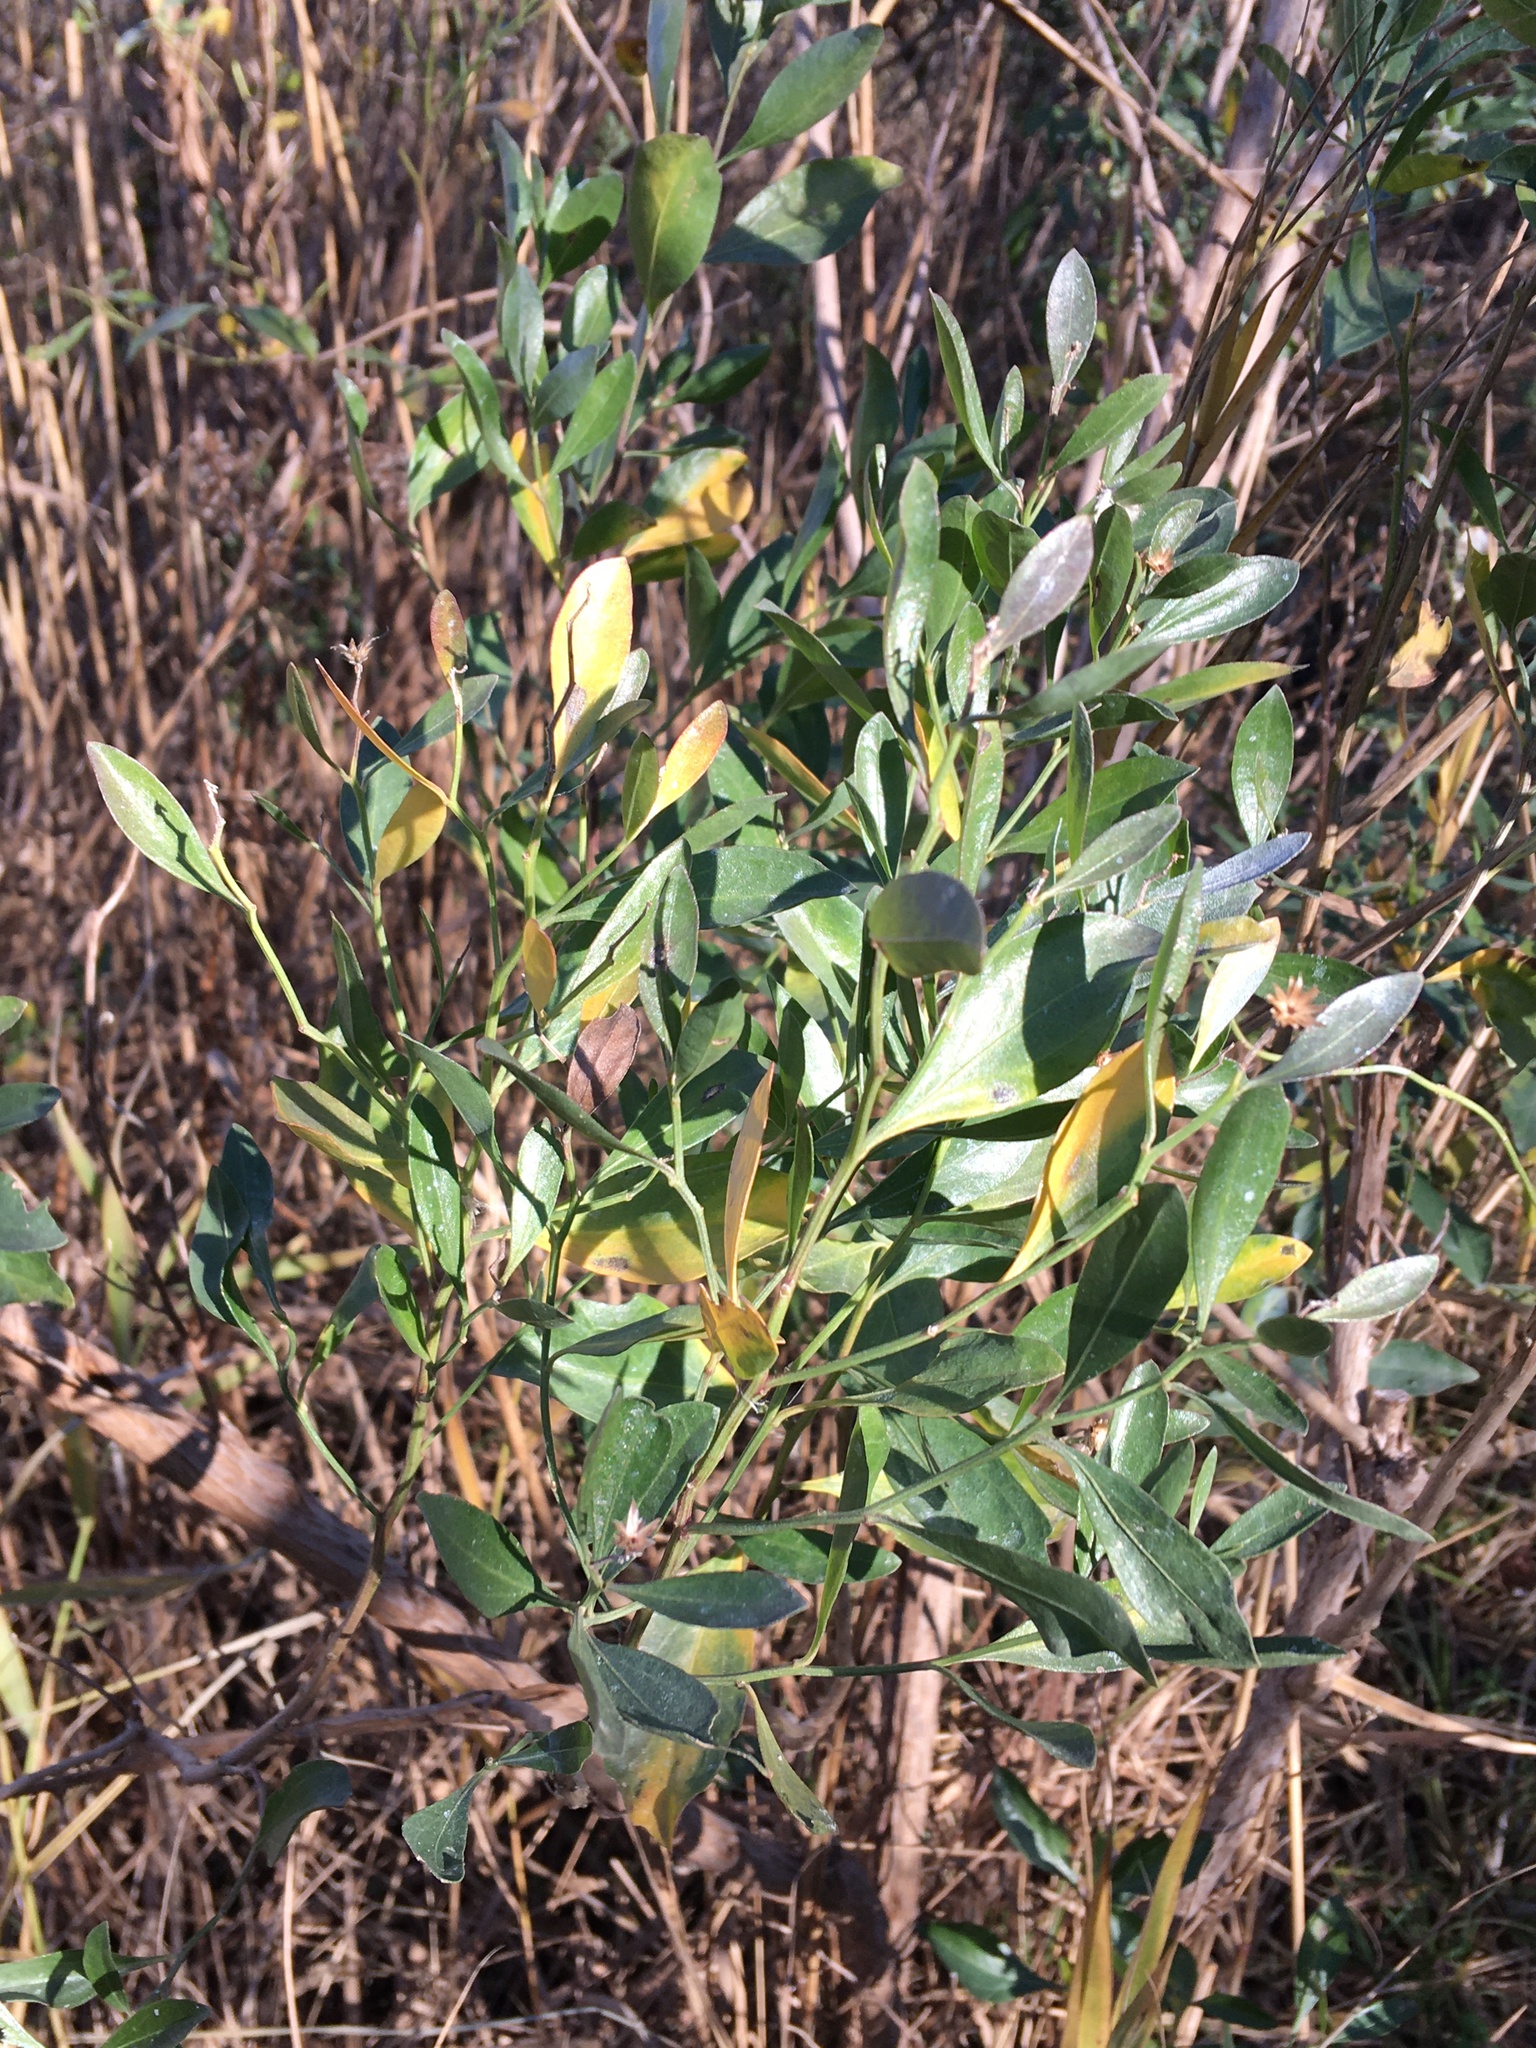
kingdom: Plantae
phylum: Tracheophyta
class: Magnoliopsida
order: Asterales
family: Asteraceae
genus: Baccharis
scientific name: Baccharis halimifolia
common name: Eastern baccharis
